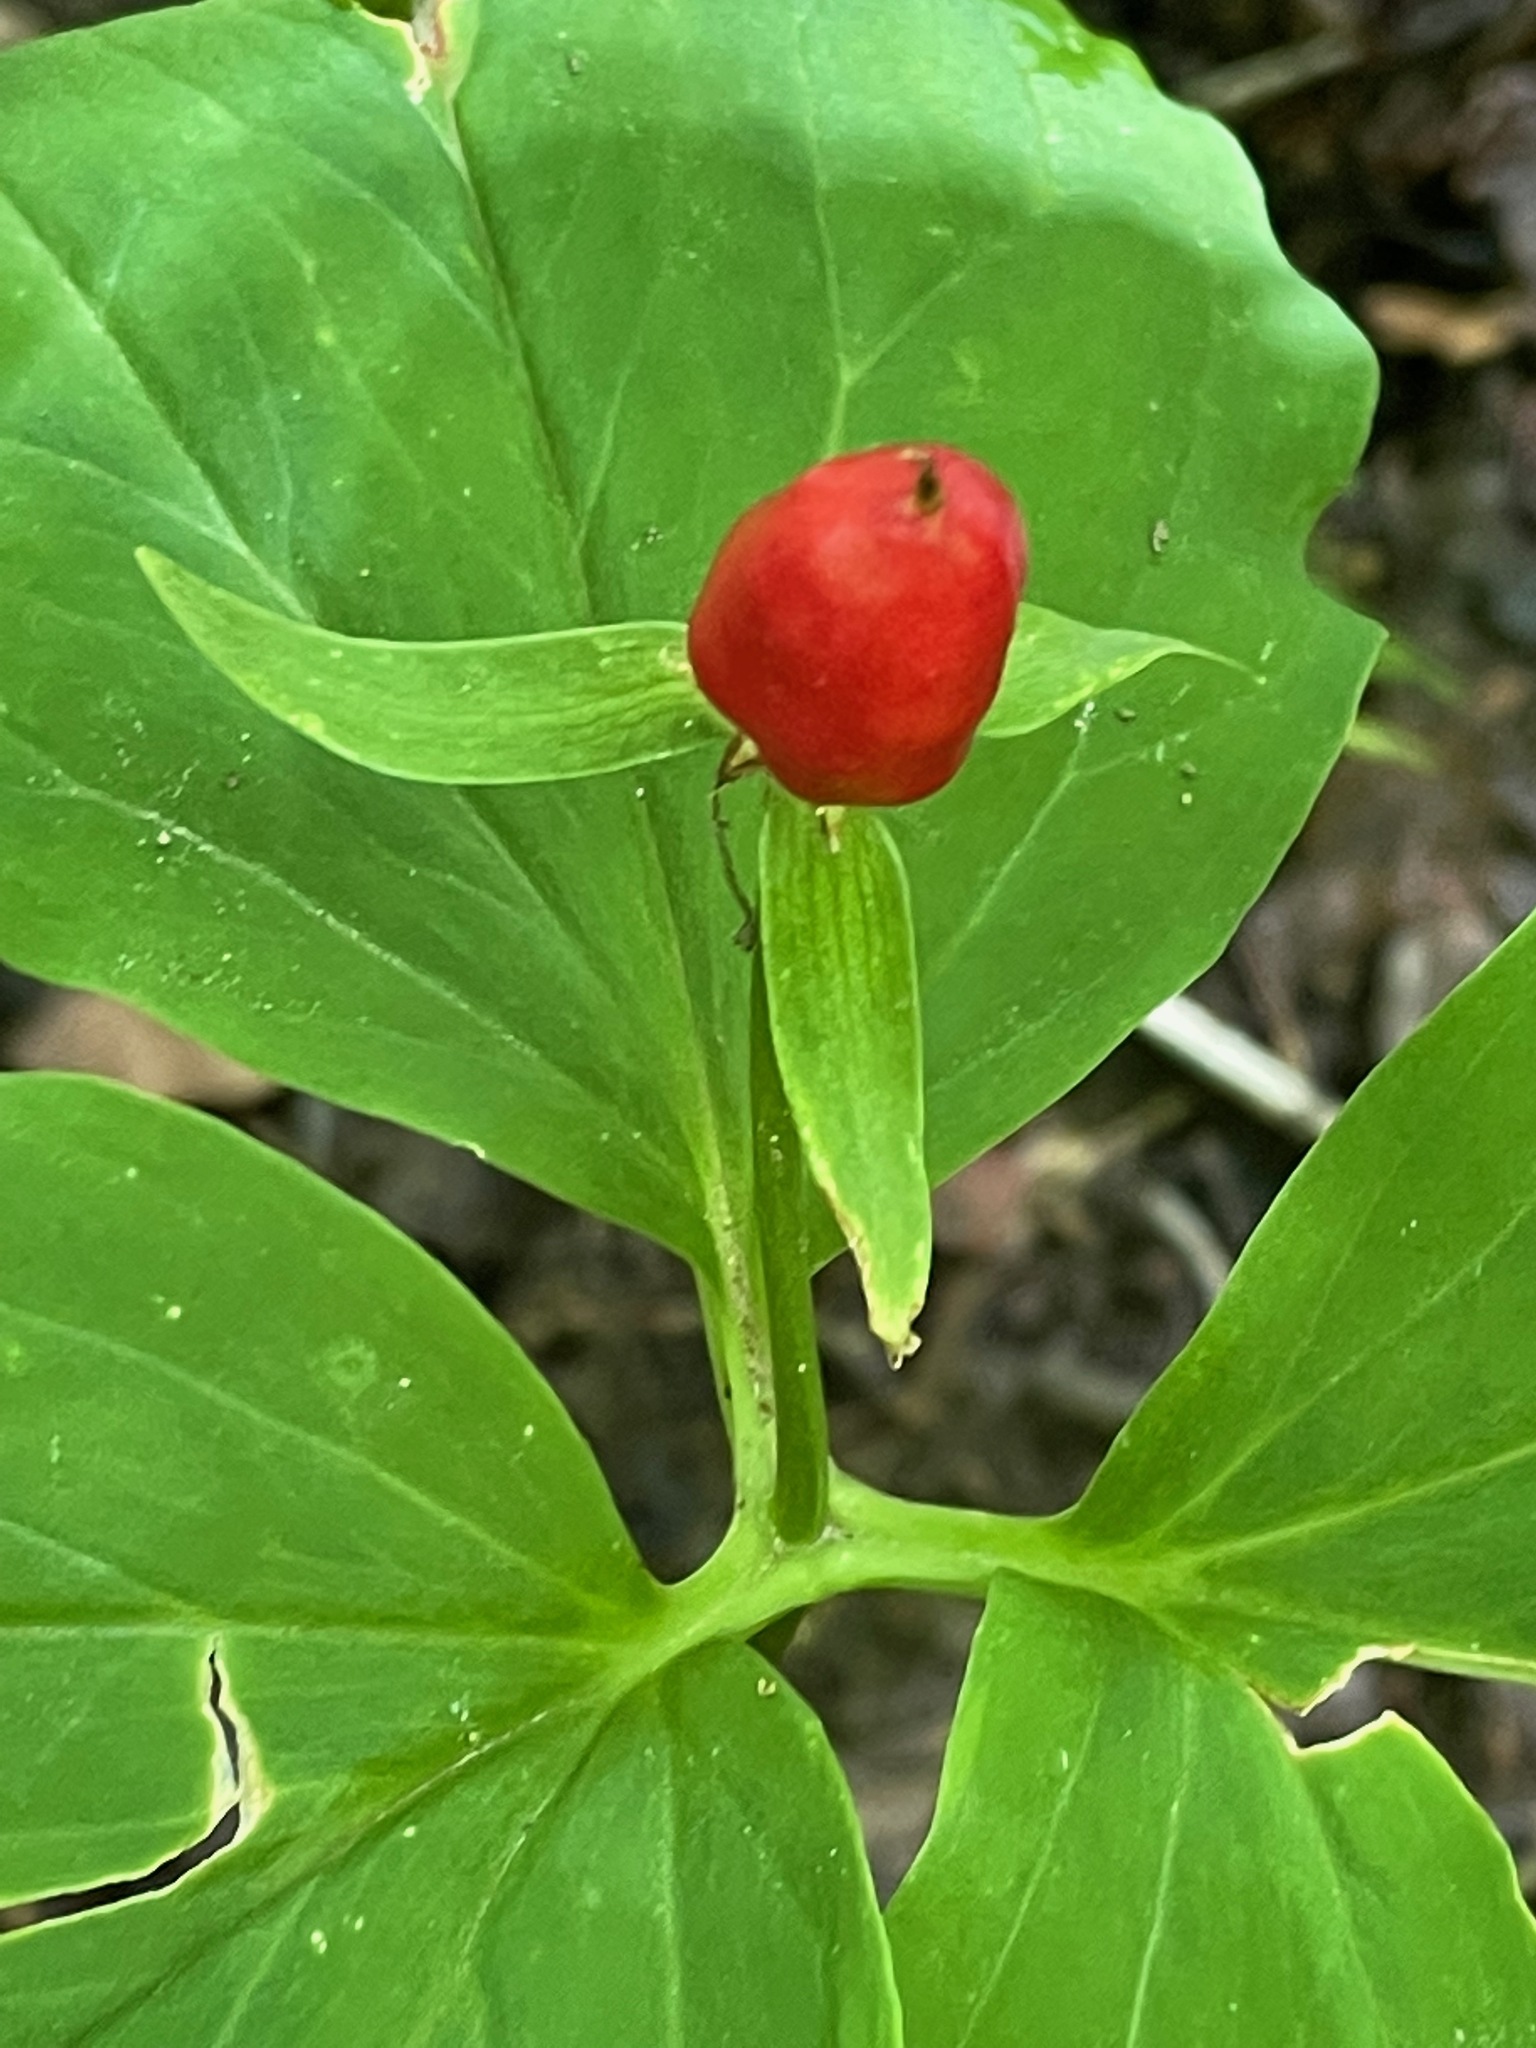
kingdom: Plantae
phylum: Tracheophyta
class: Liliopsida
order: Liliales
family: Melanthiaceae
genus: Trillium
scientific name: Trillium undulatum
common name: Paint trillium
